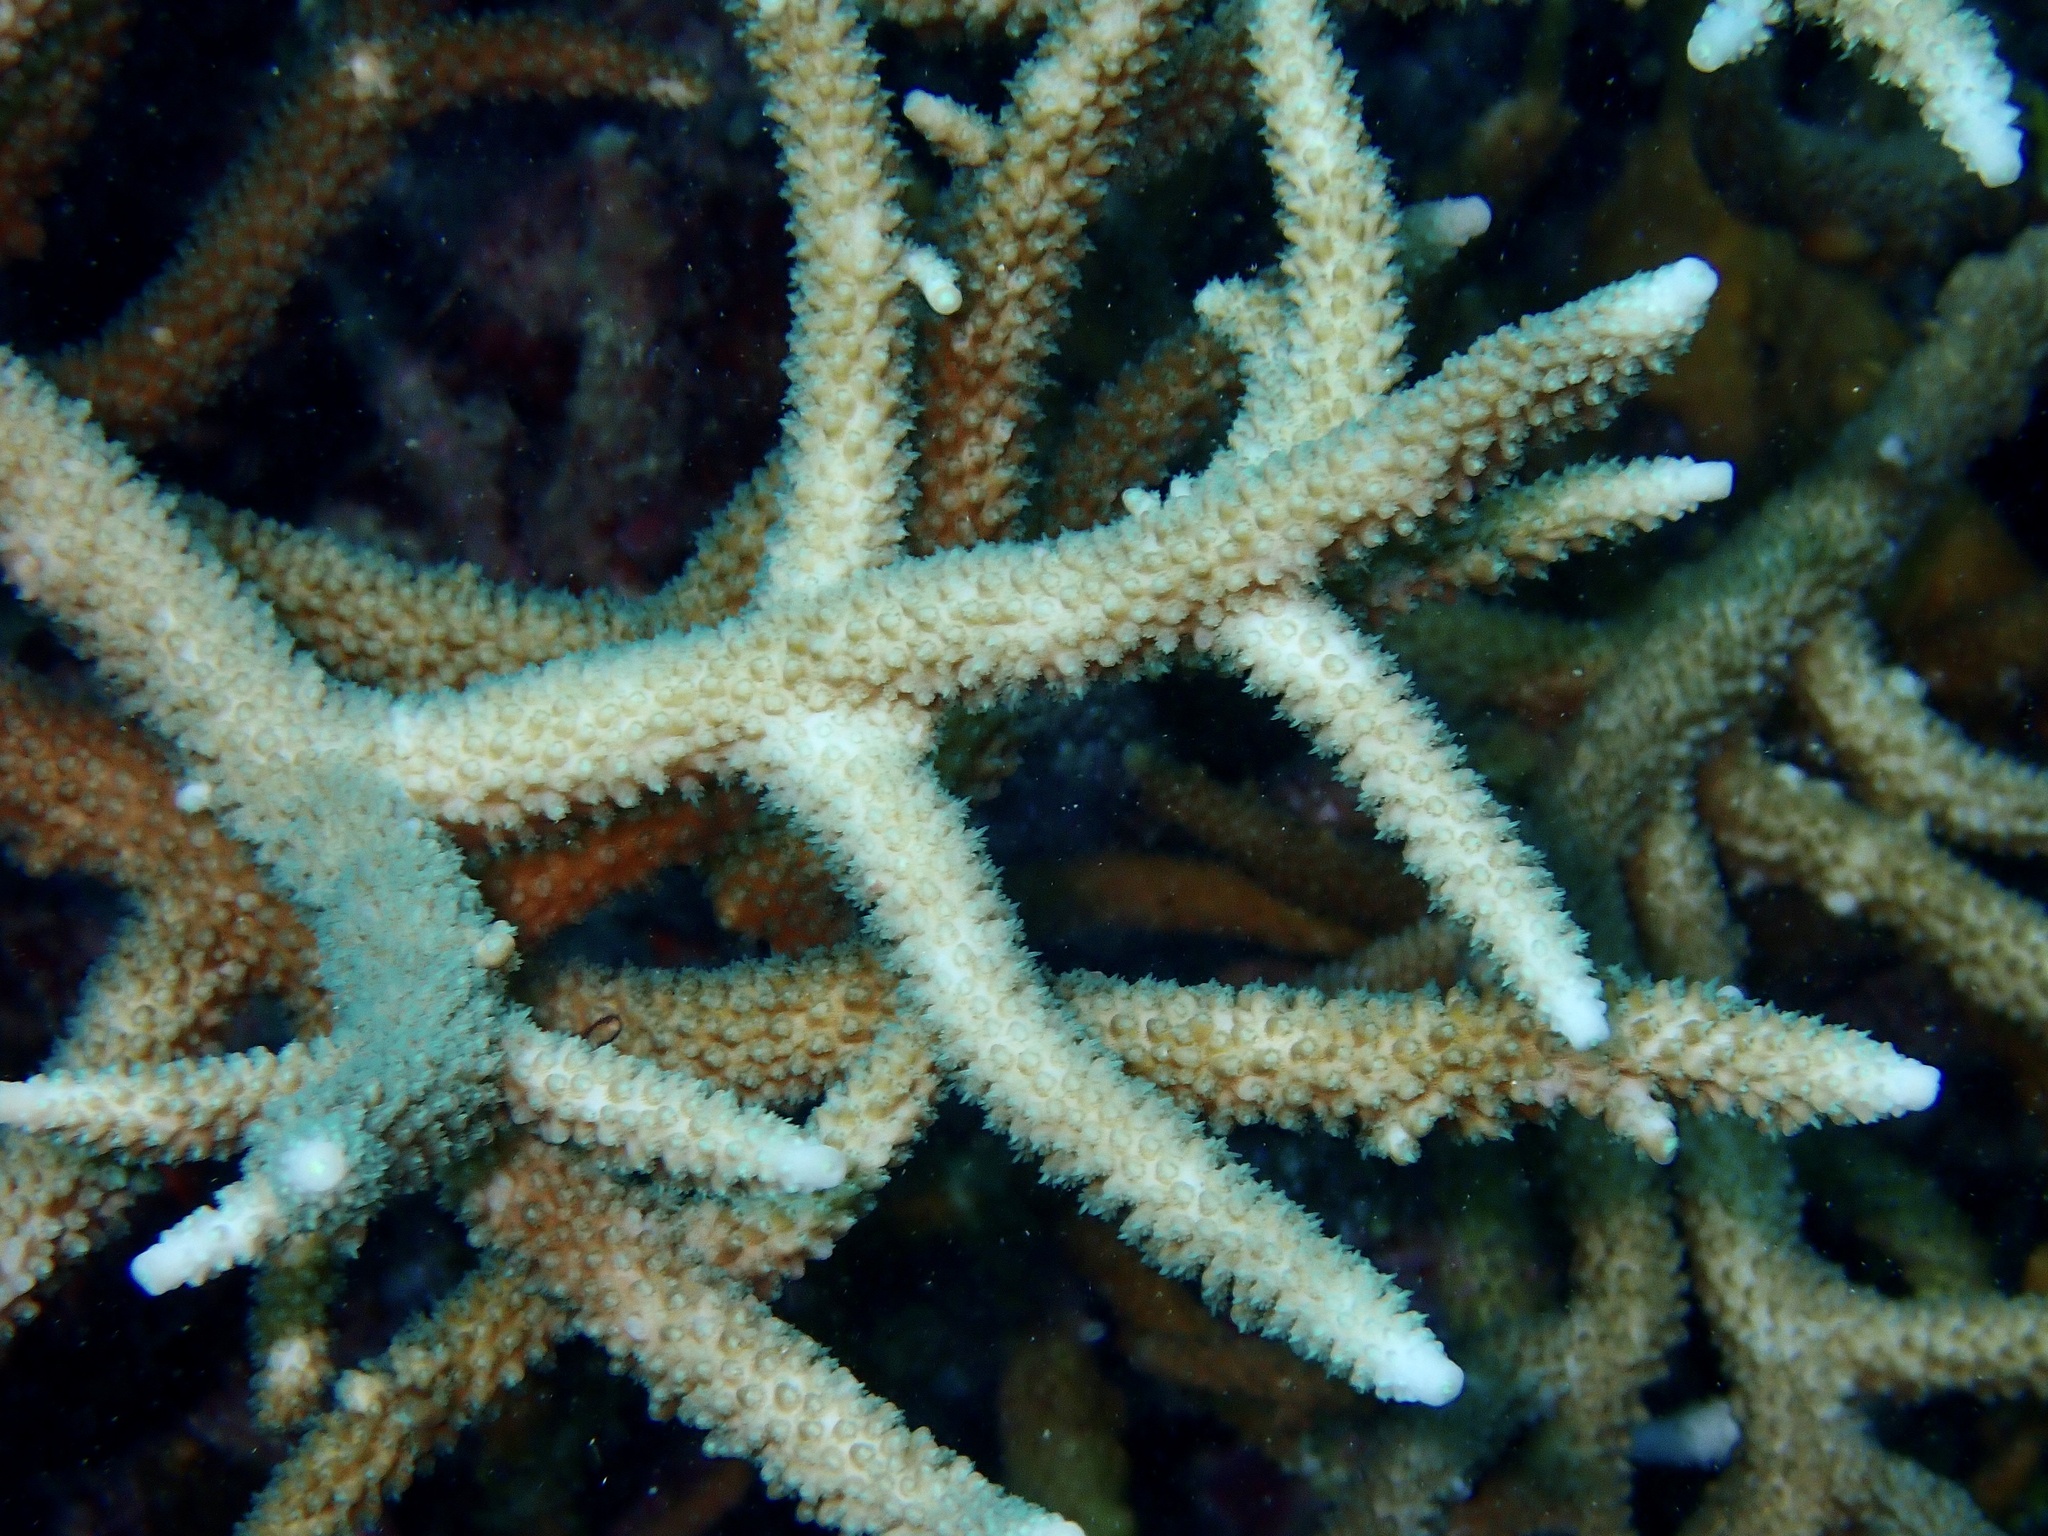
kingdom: Animalia
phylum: Cnidaria
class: Anthozoa
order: Scleractinia
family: Acroporidae
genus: Acropora
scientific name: Acropora muricata
